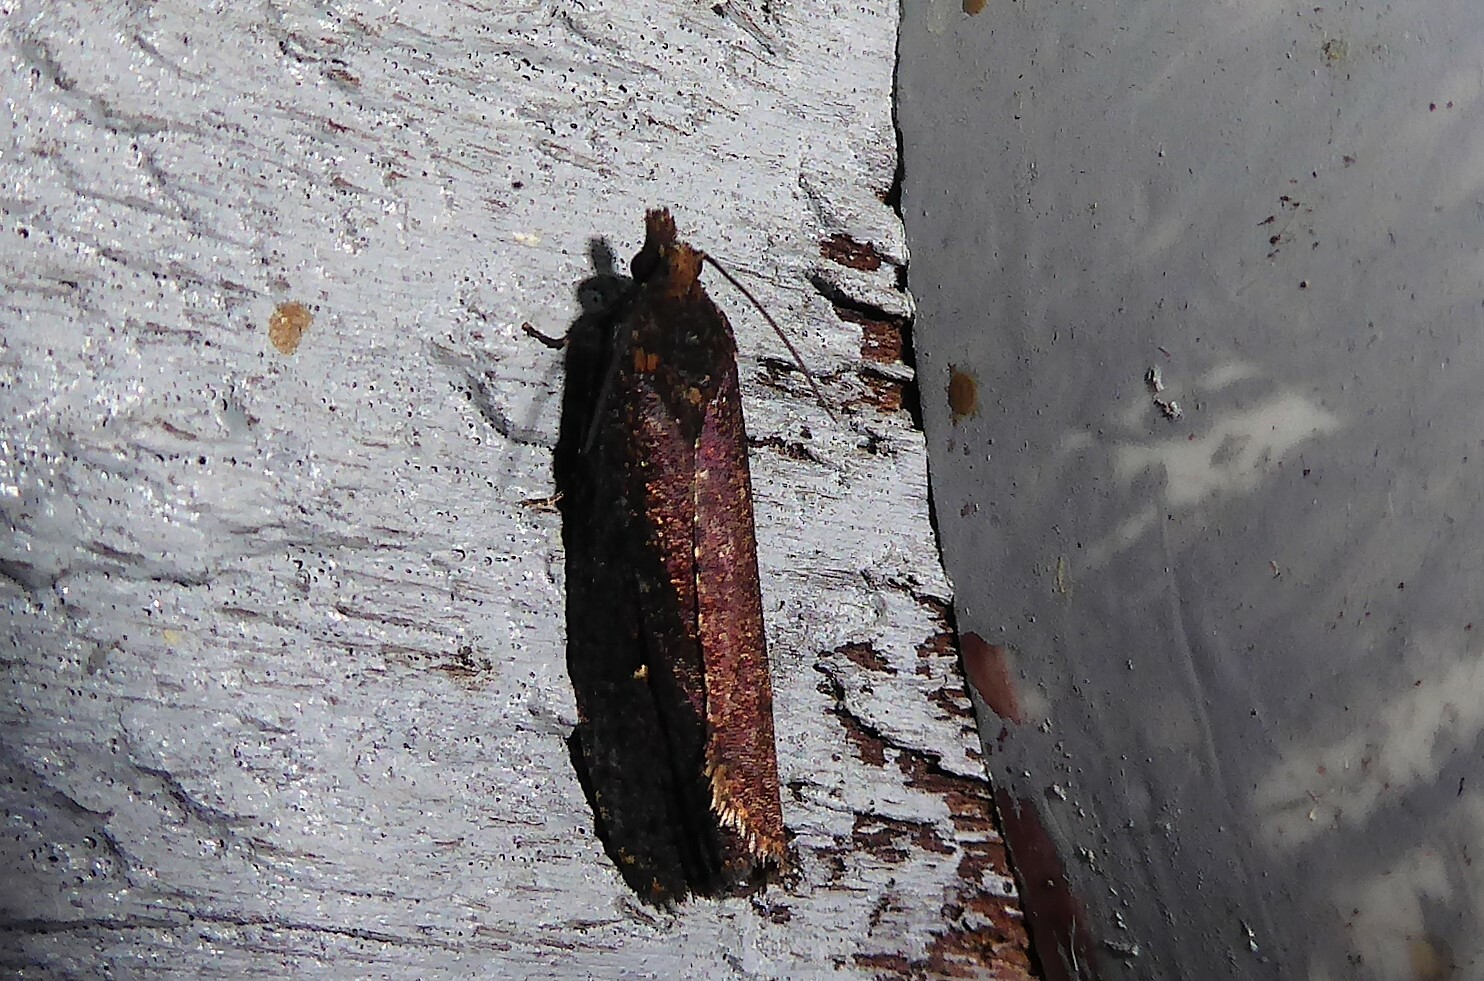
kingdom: Animalia
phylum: Arthropoda
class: Insecta
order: Lepidoptera
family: Tortricidae
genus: Cryptaspasma
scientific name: Cryptaspasma querula
